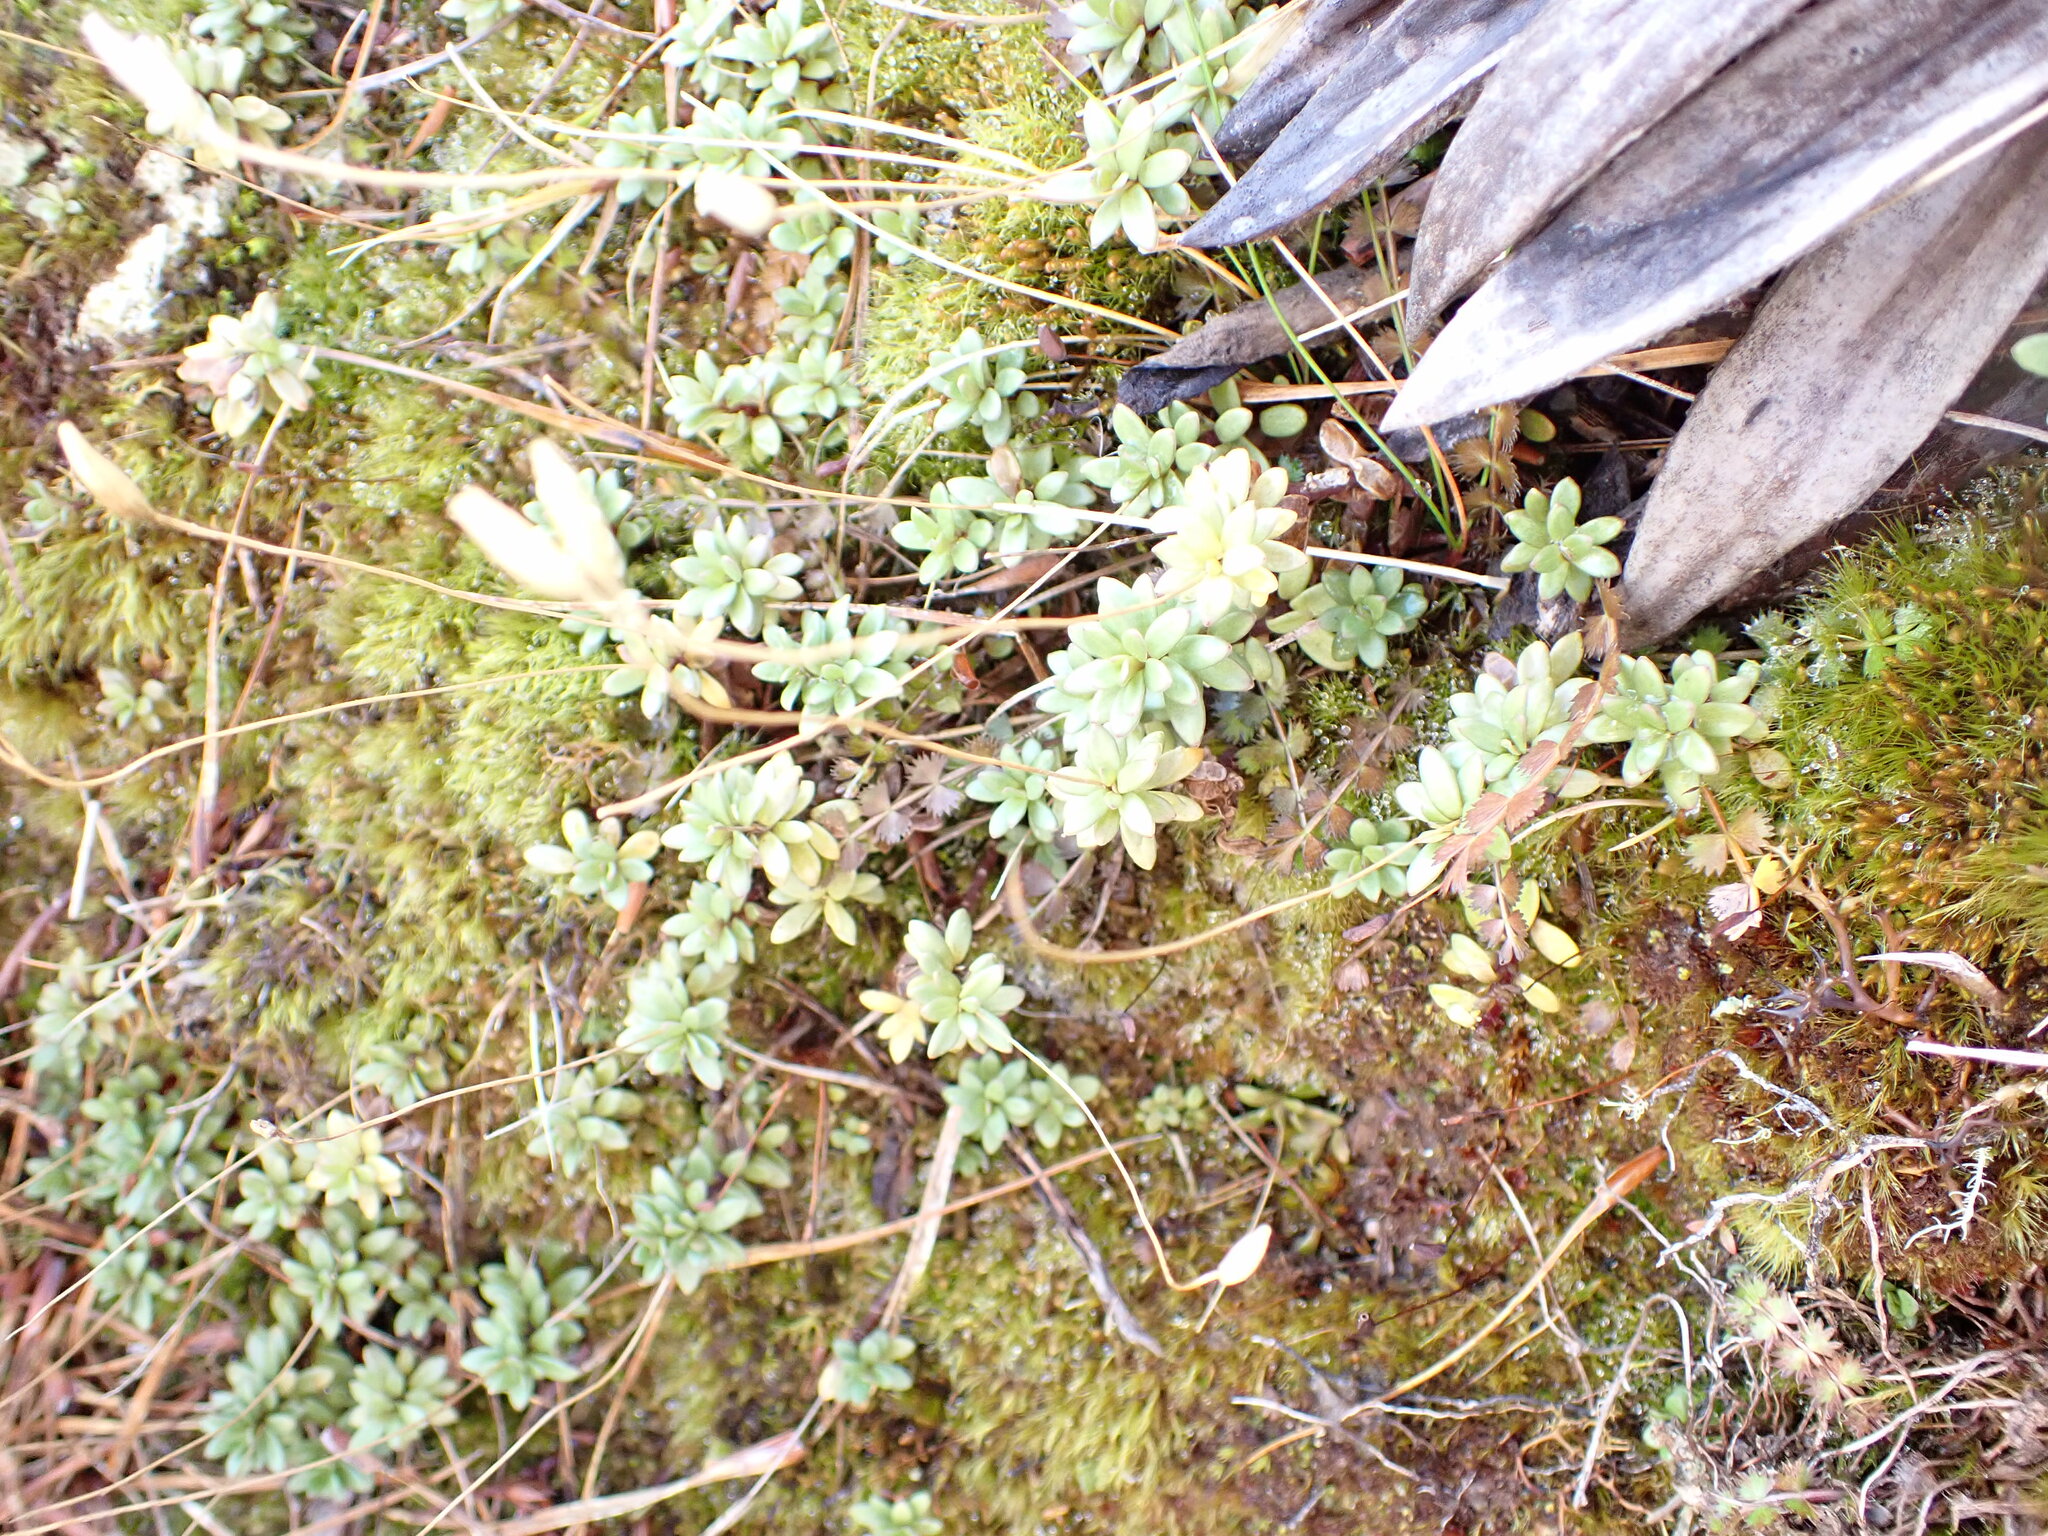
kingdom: Plantae
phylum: Tracheophyta
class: Magnoliopsida
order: Asterales
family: Stylidiaceae
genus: Forstera
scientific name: Forstera tenella
